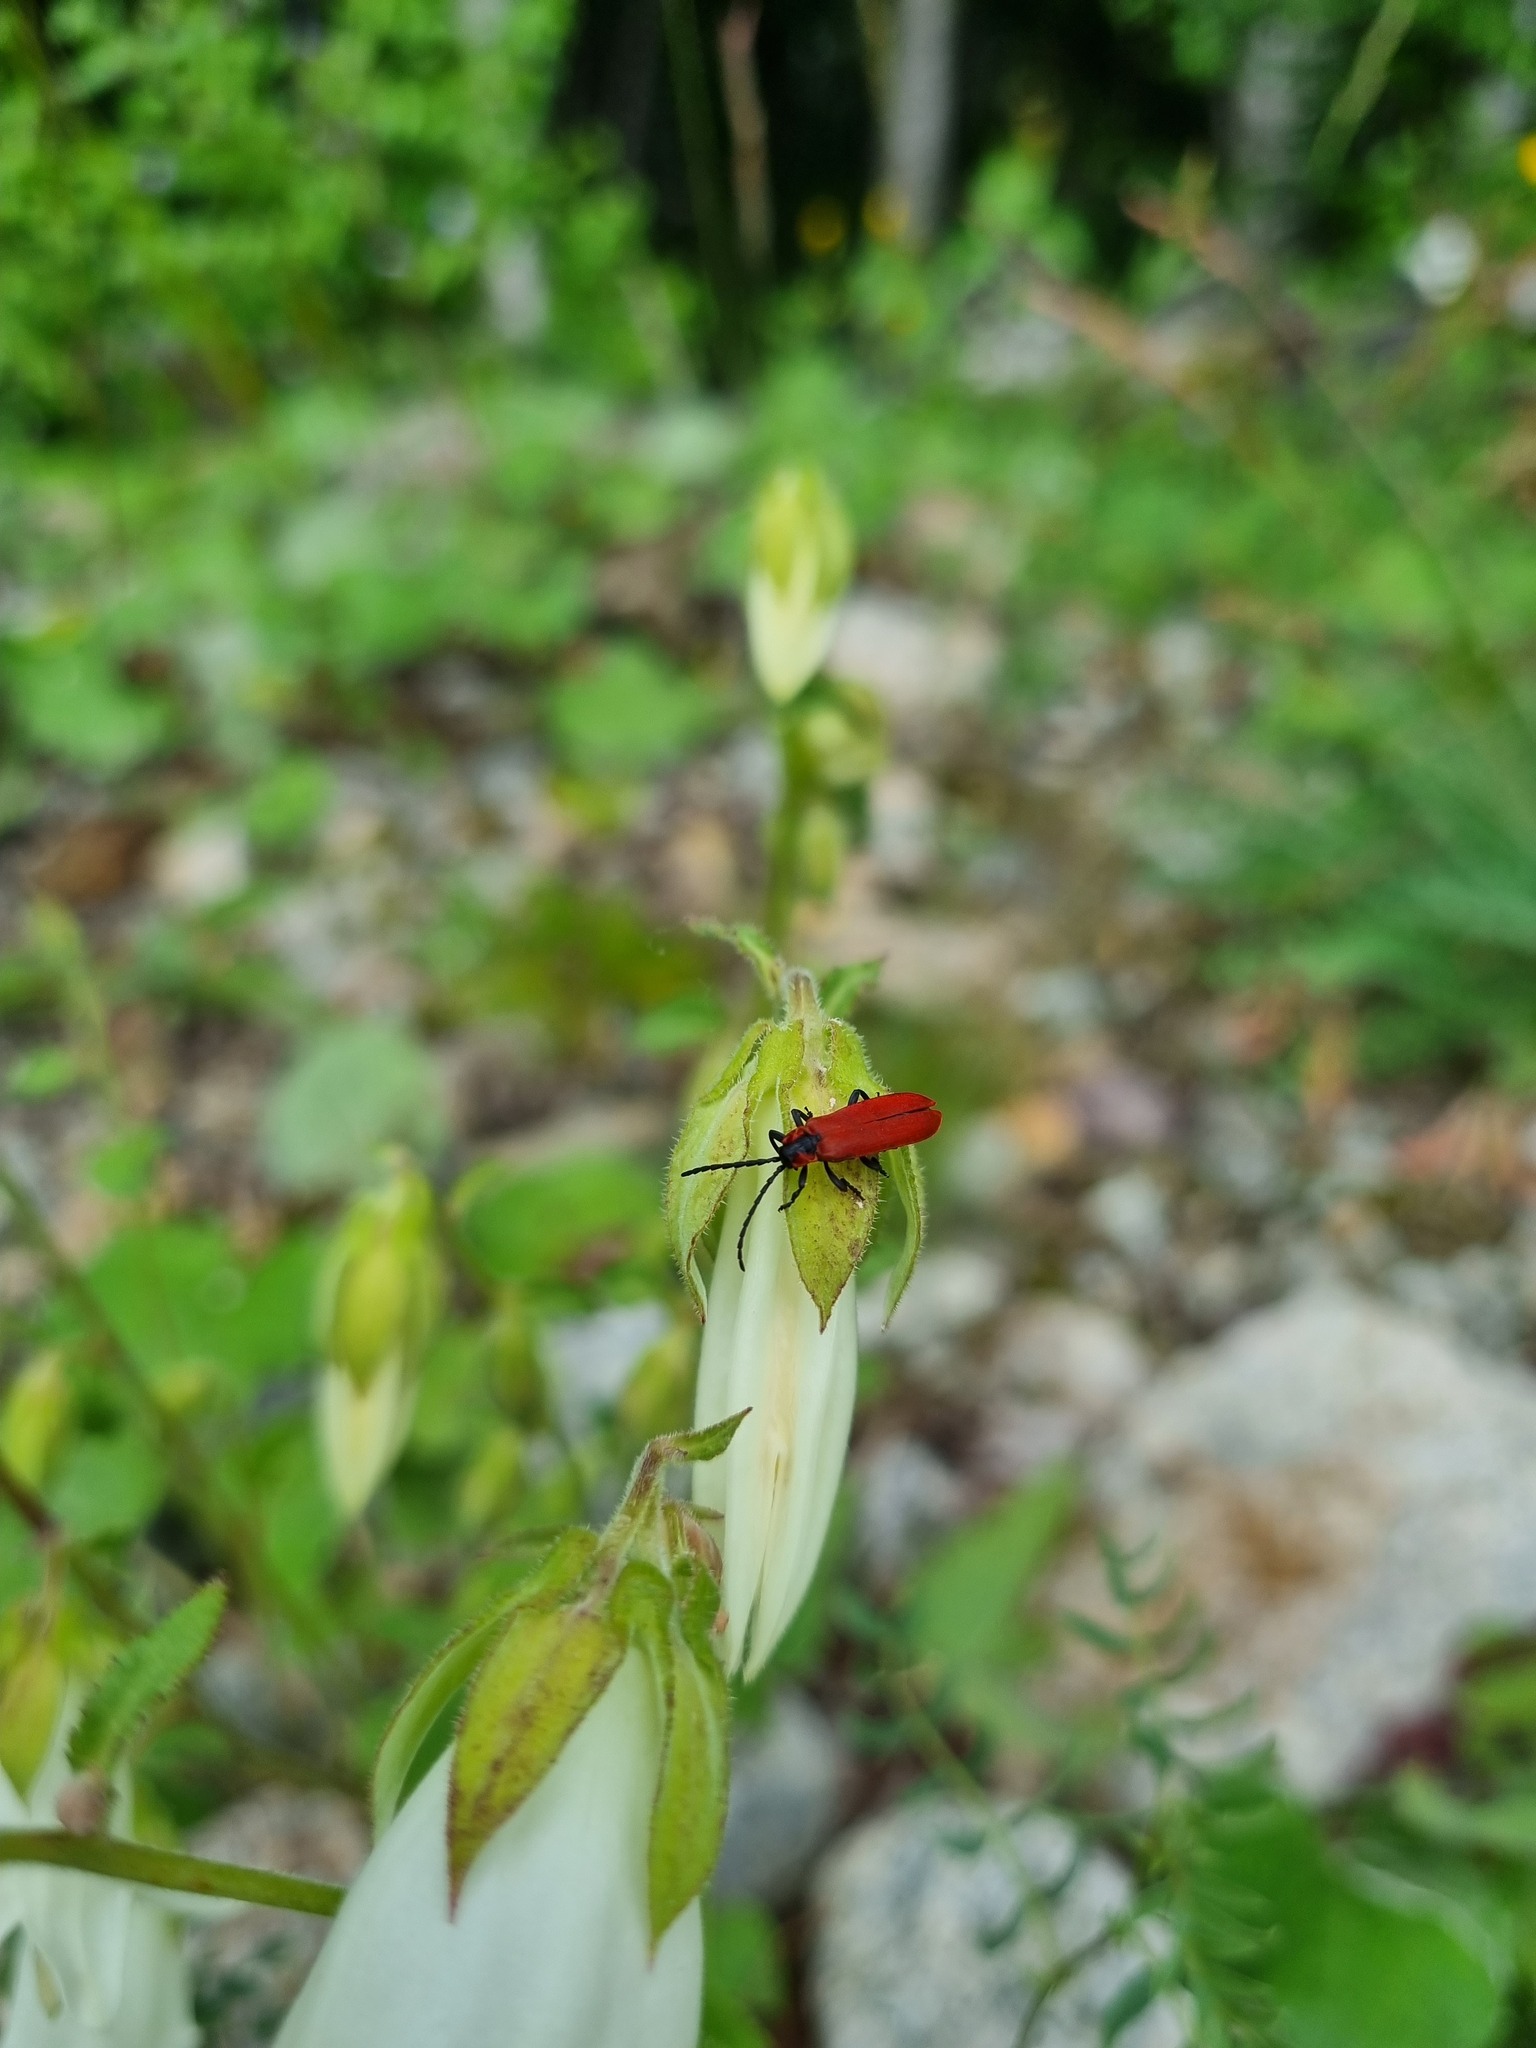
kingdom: Animalia
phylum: Arthropoda
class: Insecta
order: Coleoptera
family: Lycidae
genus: Lygistopterus
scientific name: Lygistopterus sanguineus
